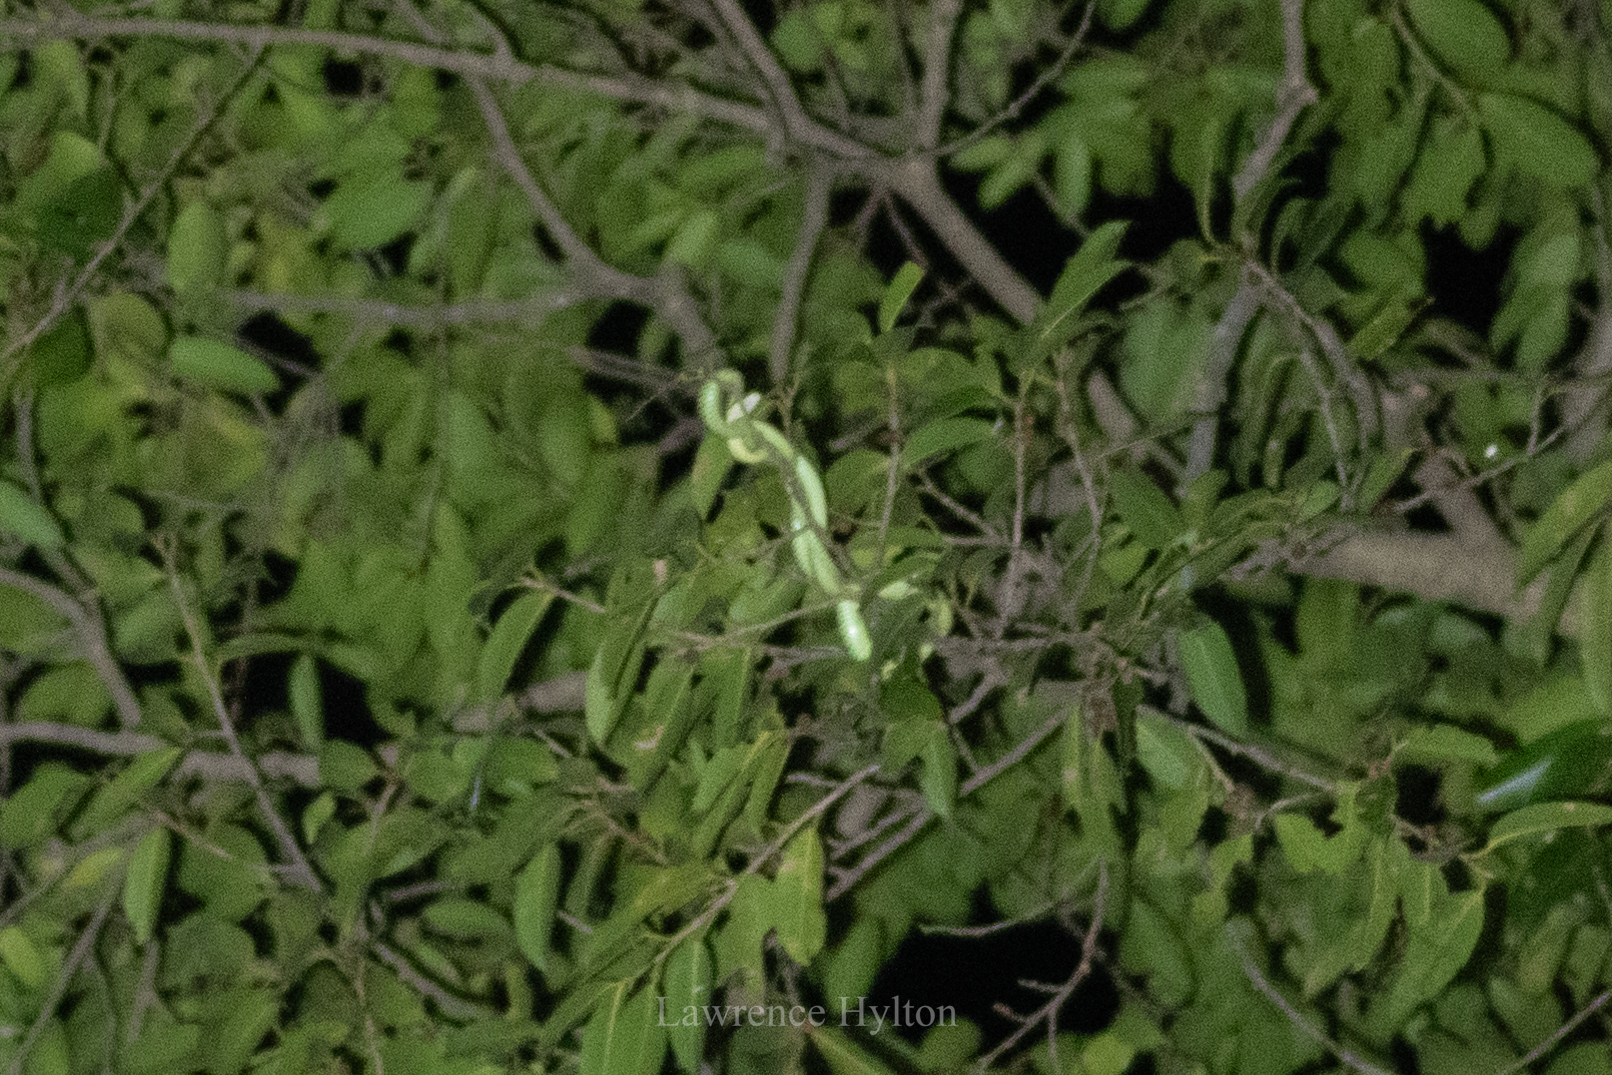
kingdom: Animalia
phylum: Chordata
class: Squamata
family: Colubridae
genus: Chrysopelea
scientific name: Chrysopelea ornata
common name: Golden flying snake
